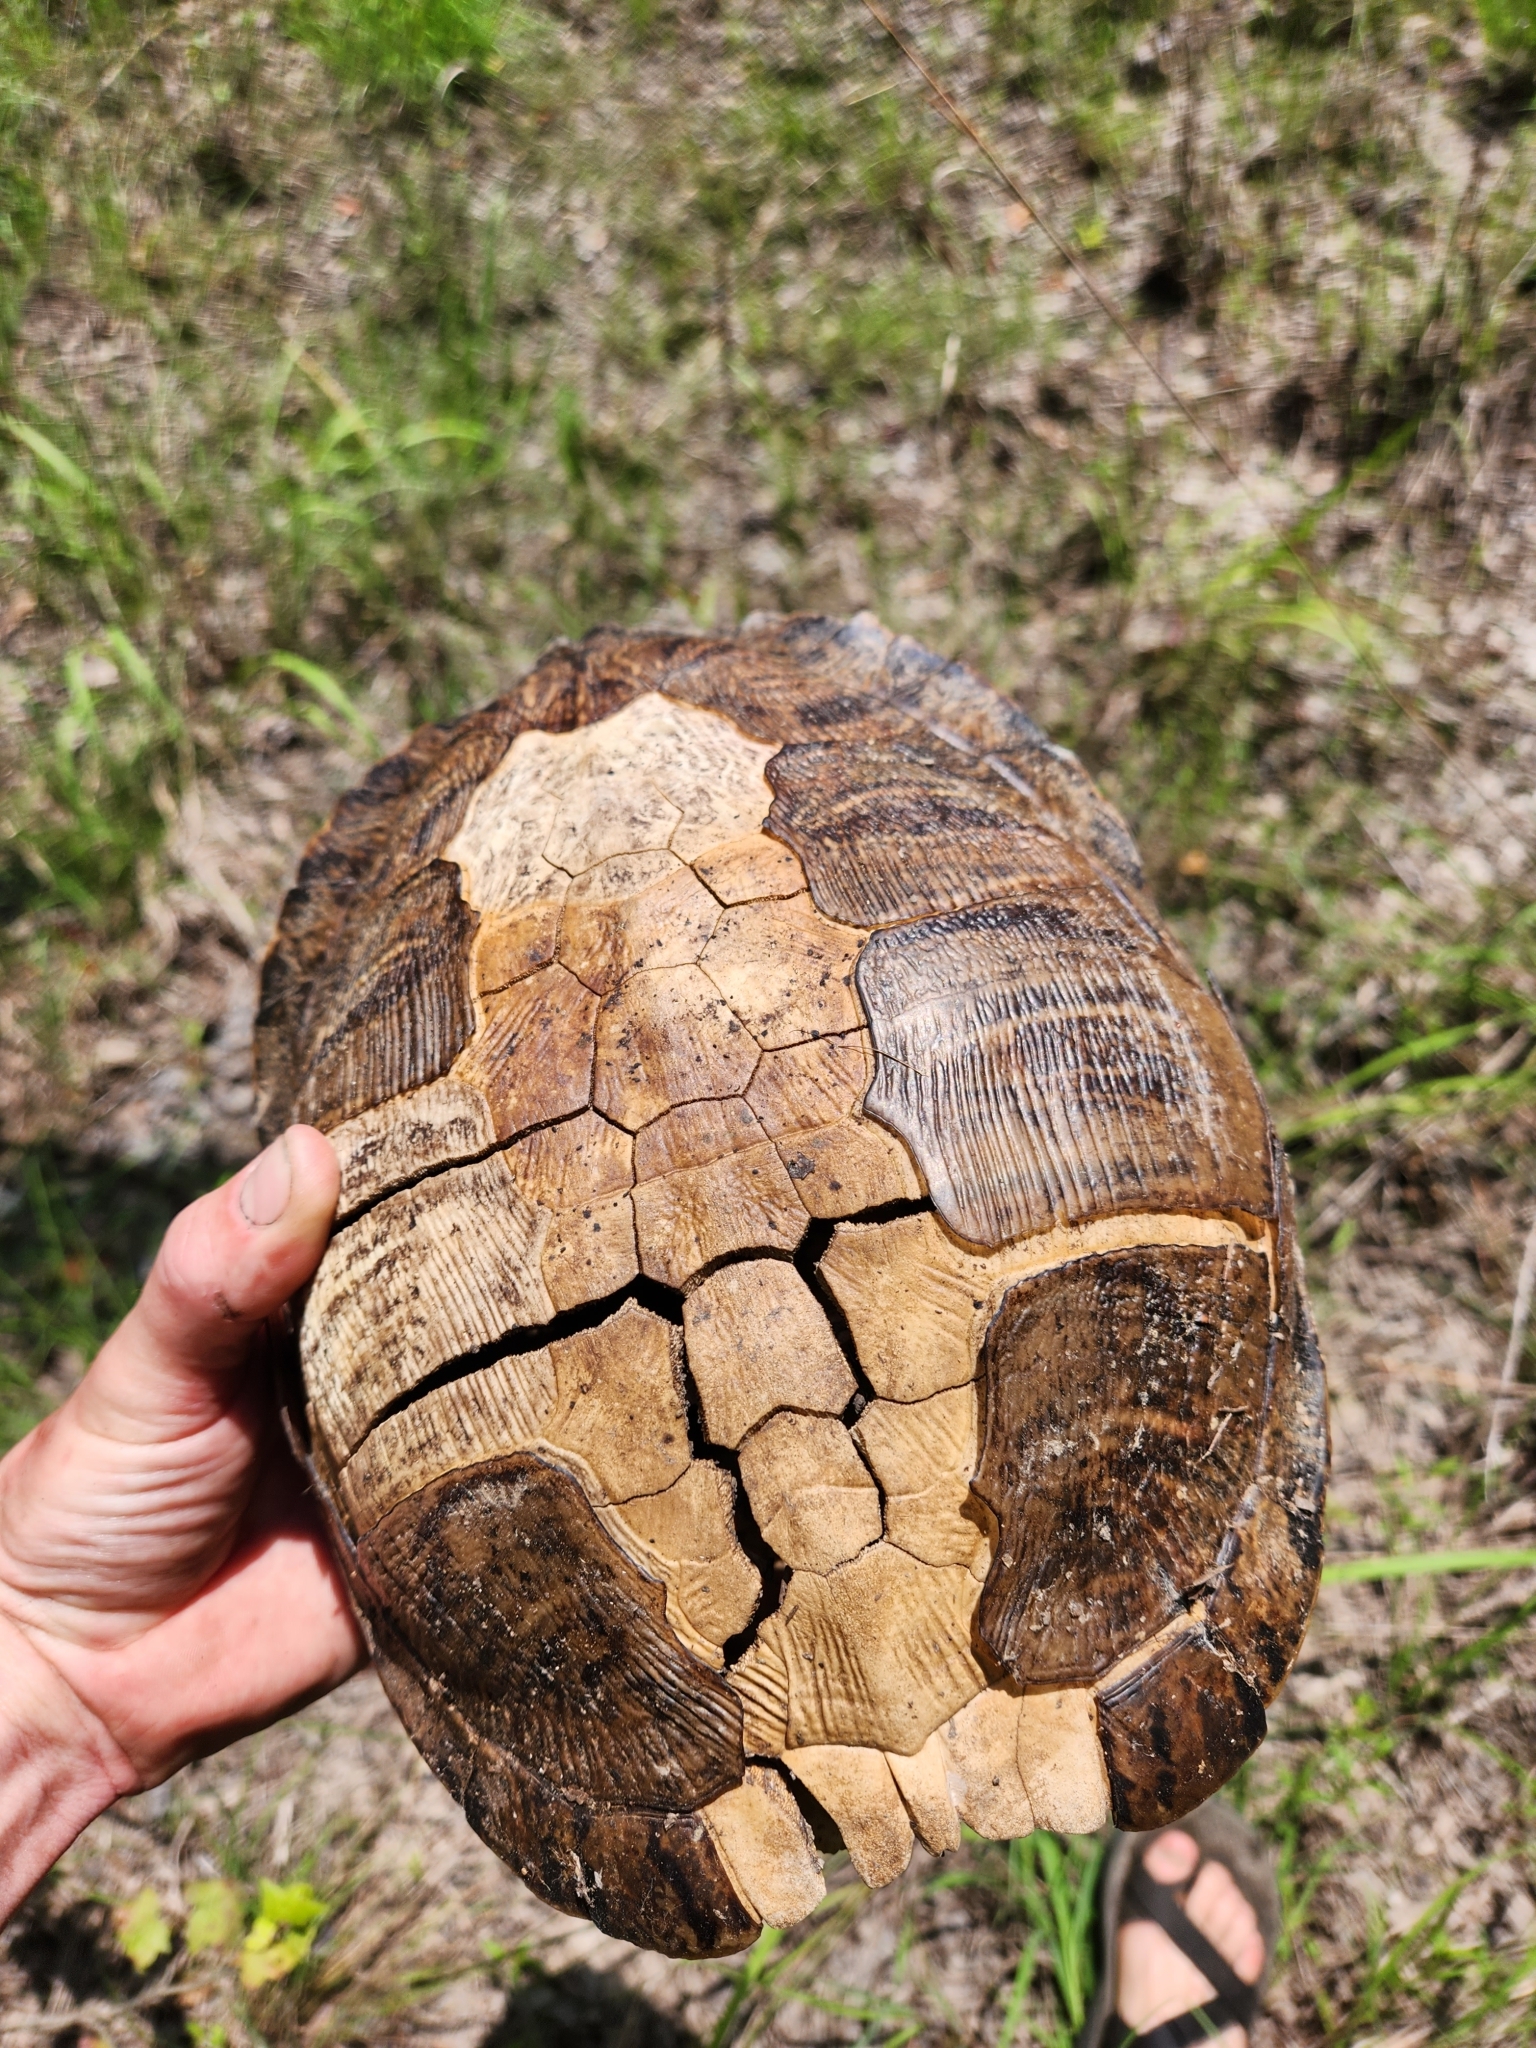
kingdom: Animalia
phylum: Chordata
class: Testudines
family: Emydidae
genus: Trachemys
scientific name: Trachemys scripta
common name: Slider
